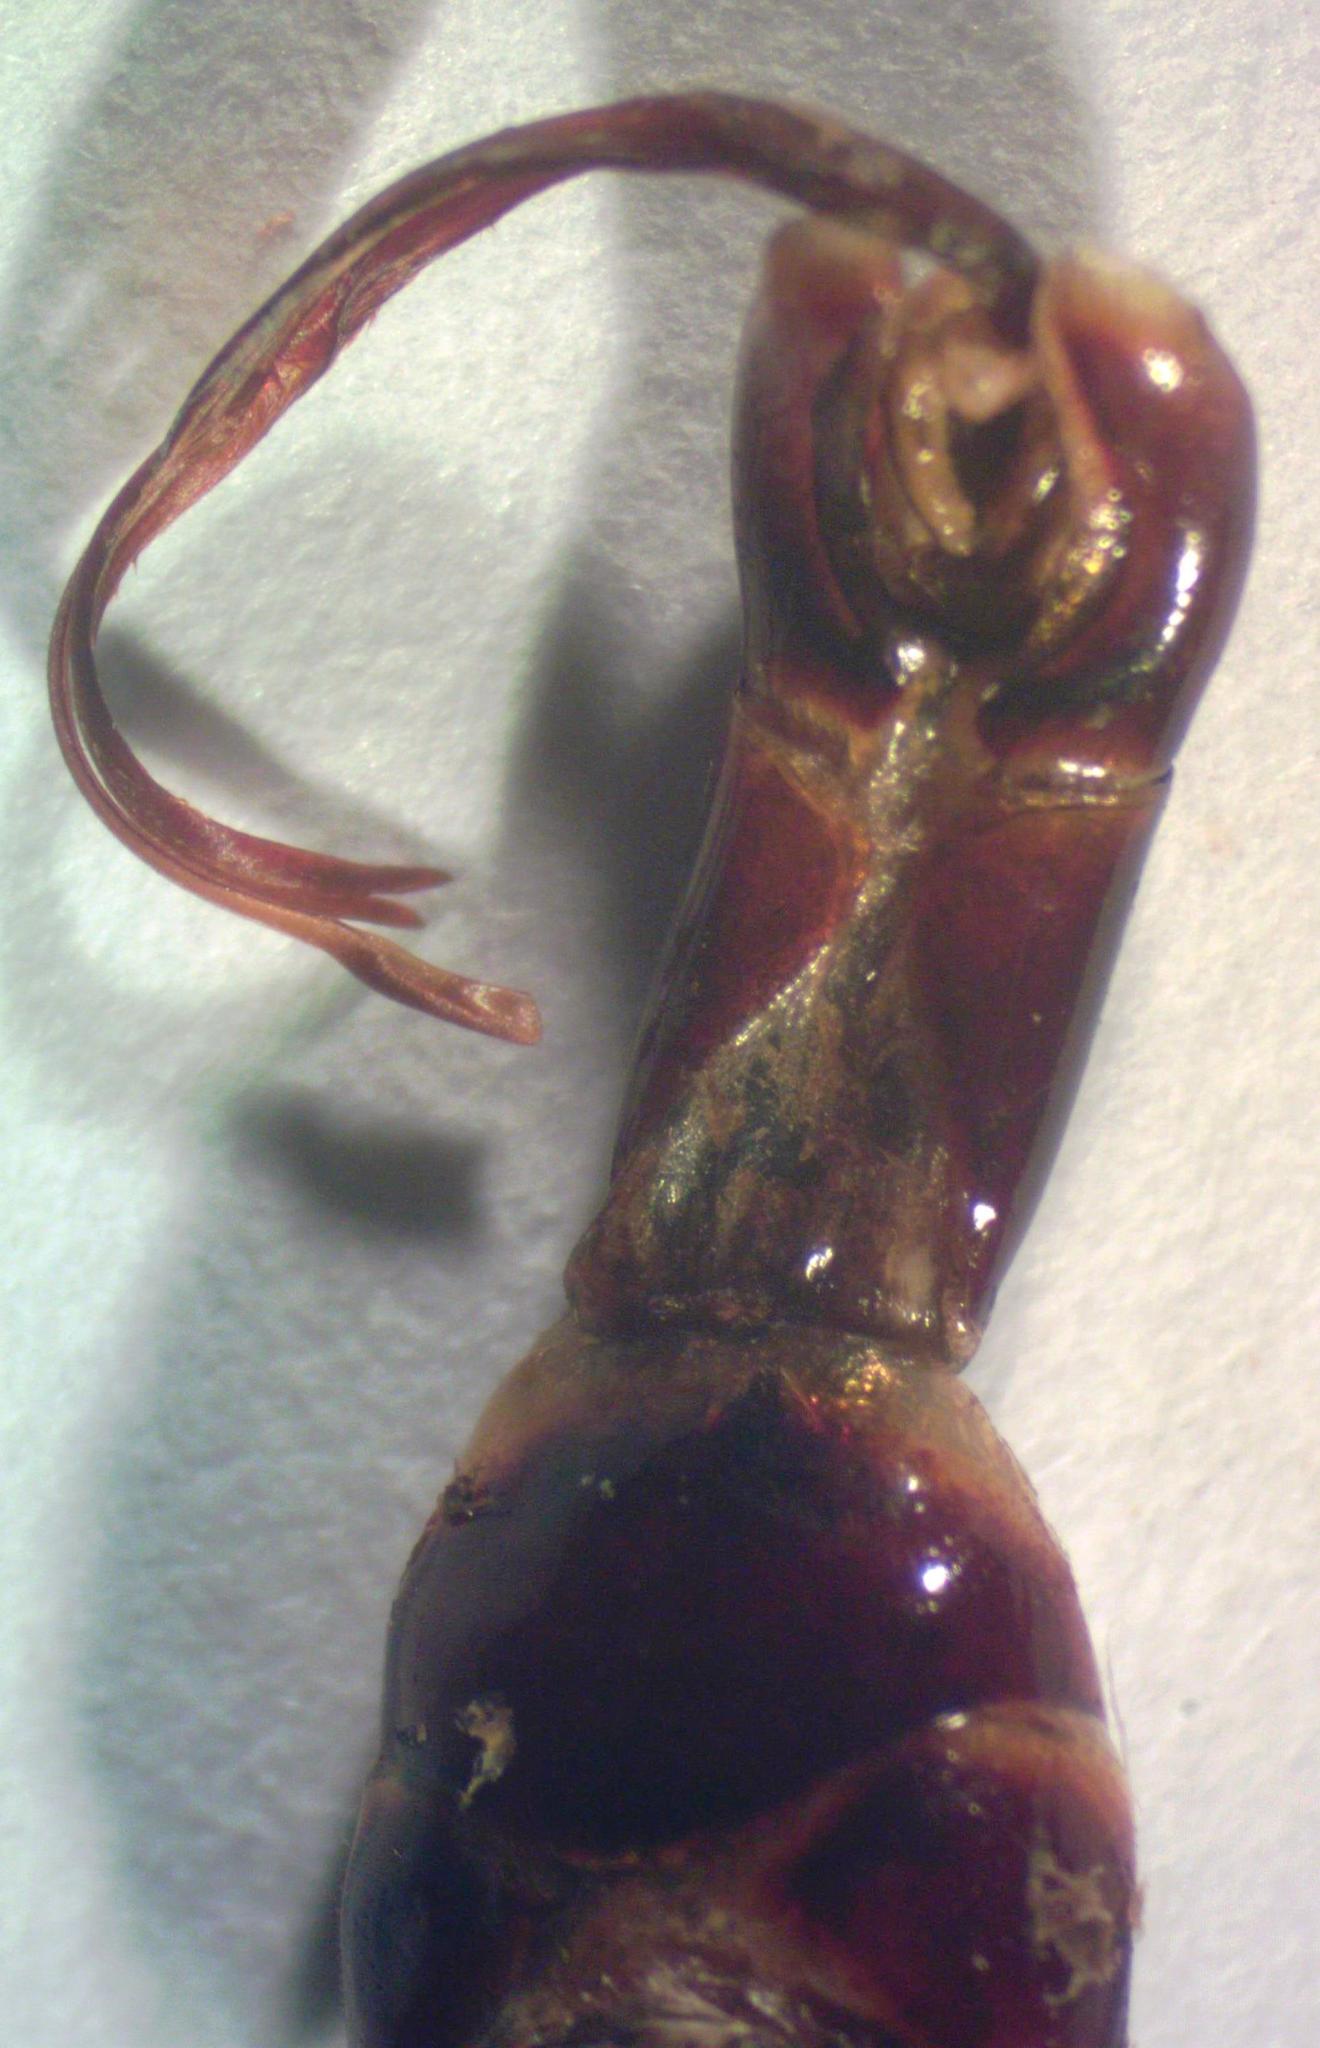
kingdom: Animalia
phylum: Arthropoda
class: Insecta
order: Coleoptera
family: Lucanidae
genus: Dorcus
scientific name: Dorcus antaeus
